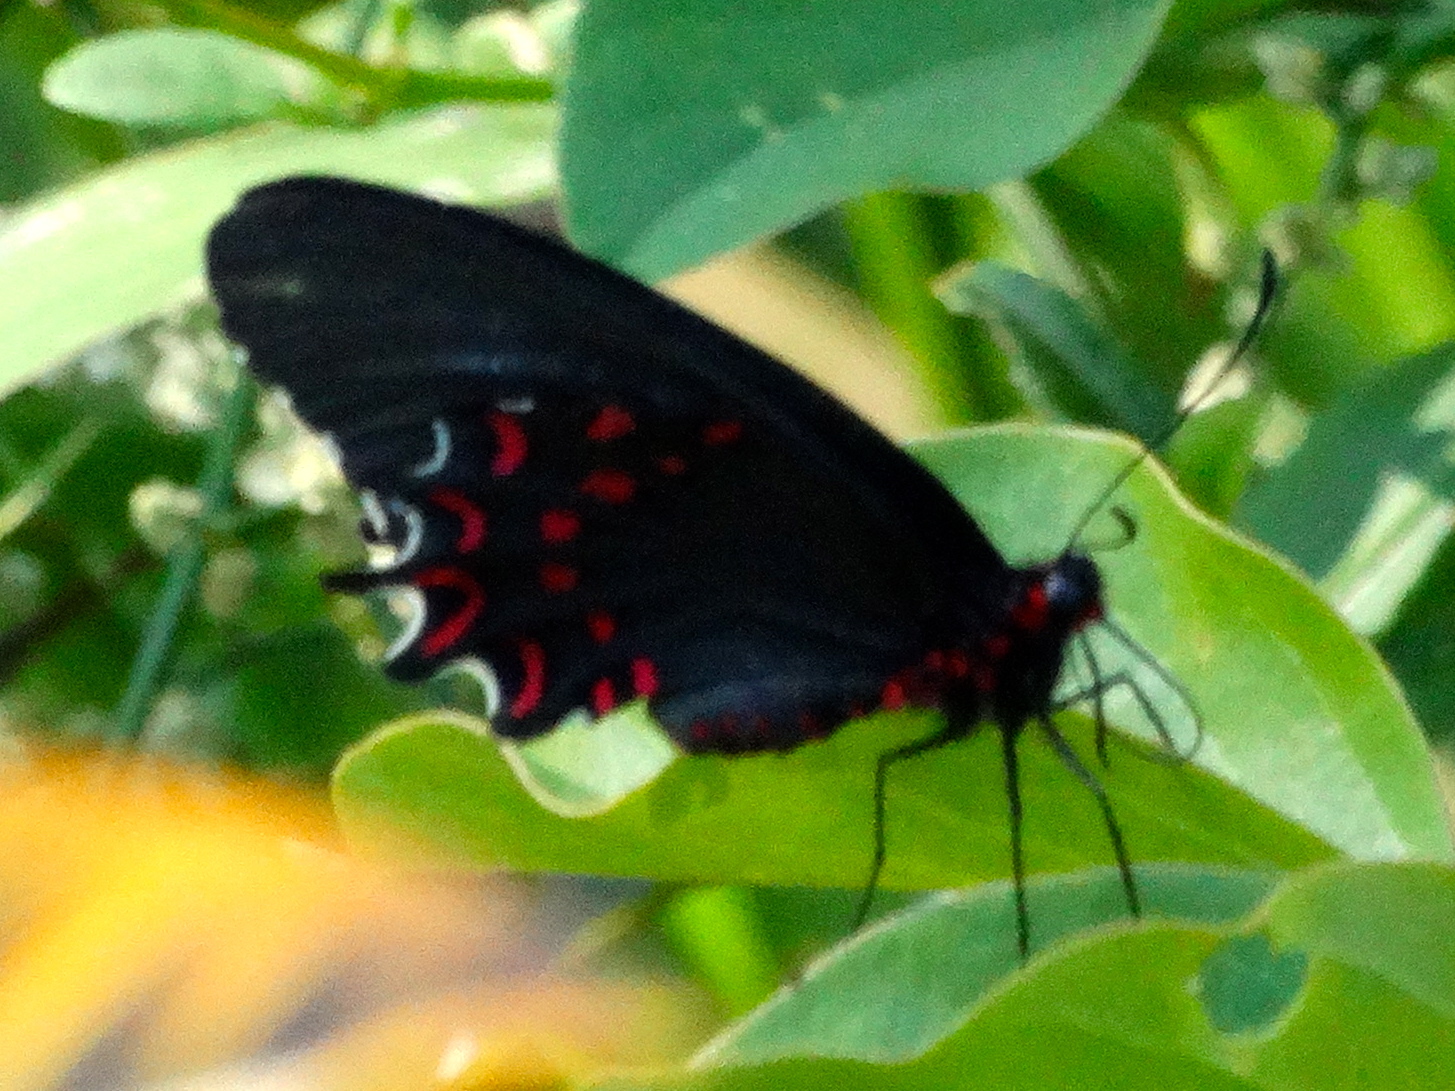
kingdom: Animalia
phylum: Arthropoda
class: Insecta
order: Lepidoptera
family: Papilionidae
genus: Parides
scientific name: Parides photinus
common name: Pink-spotted cattleheart
